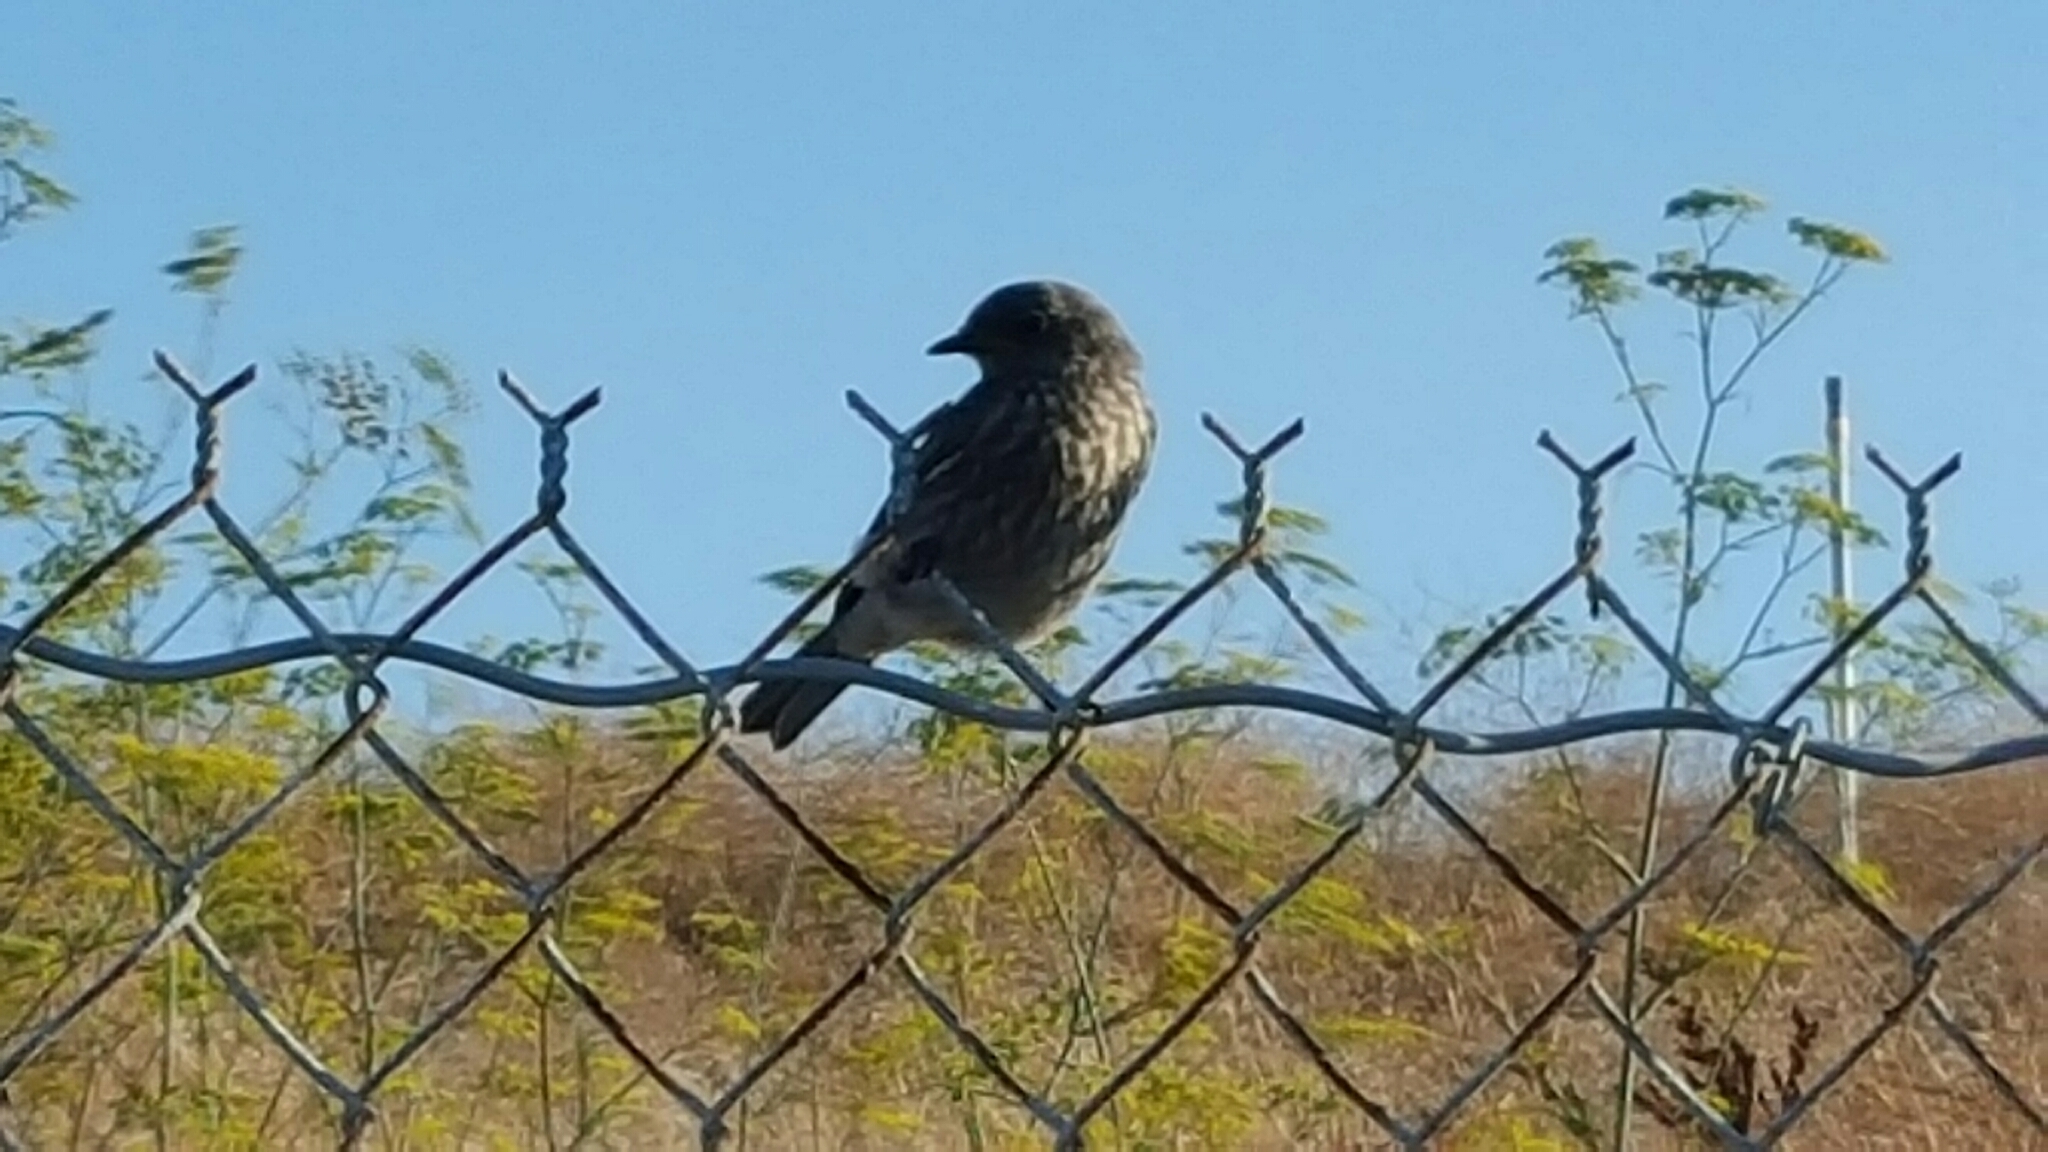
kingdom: Animalia
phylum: Chordata
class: Aves
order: Passeriformes
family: Turdidae
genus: Sialia
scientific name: Sialia mexicana
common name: Western bluebird
